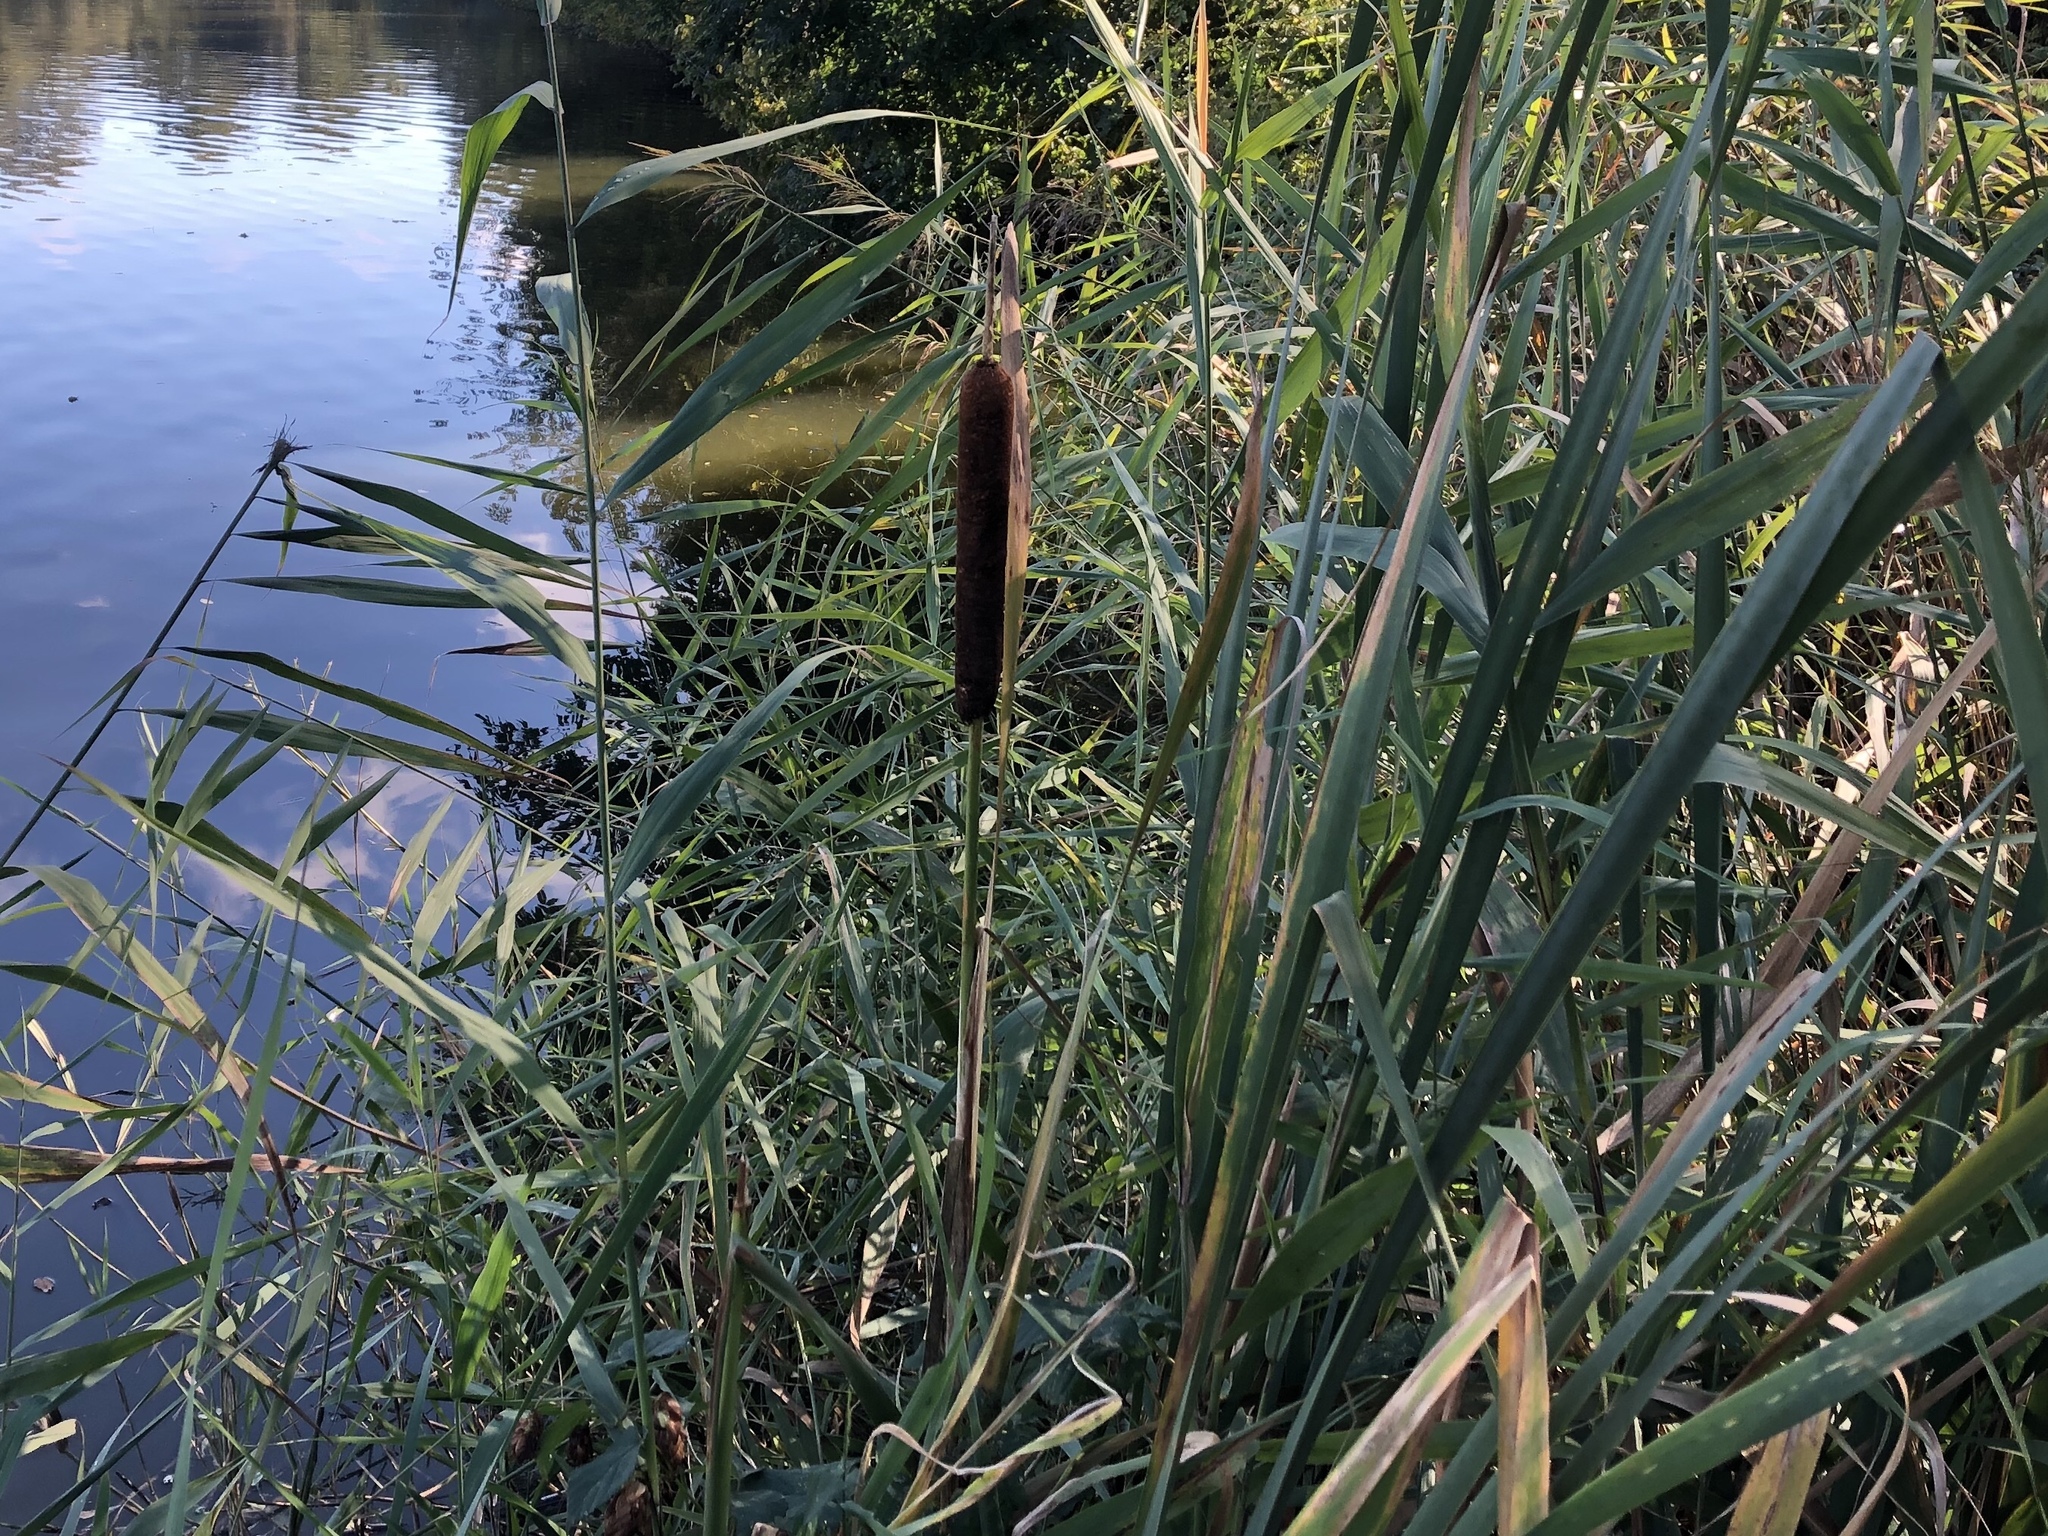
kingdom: Plantae
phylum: Tracheophyta
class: Liliopsida
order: Poales
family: Typhaceae
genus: Typha
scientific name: Typha latifolia
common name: Broadleaf cattail
